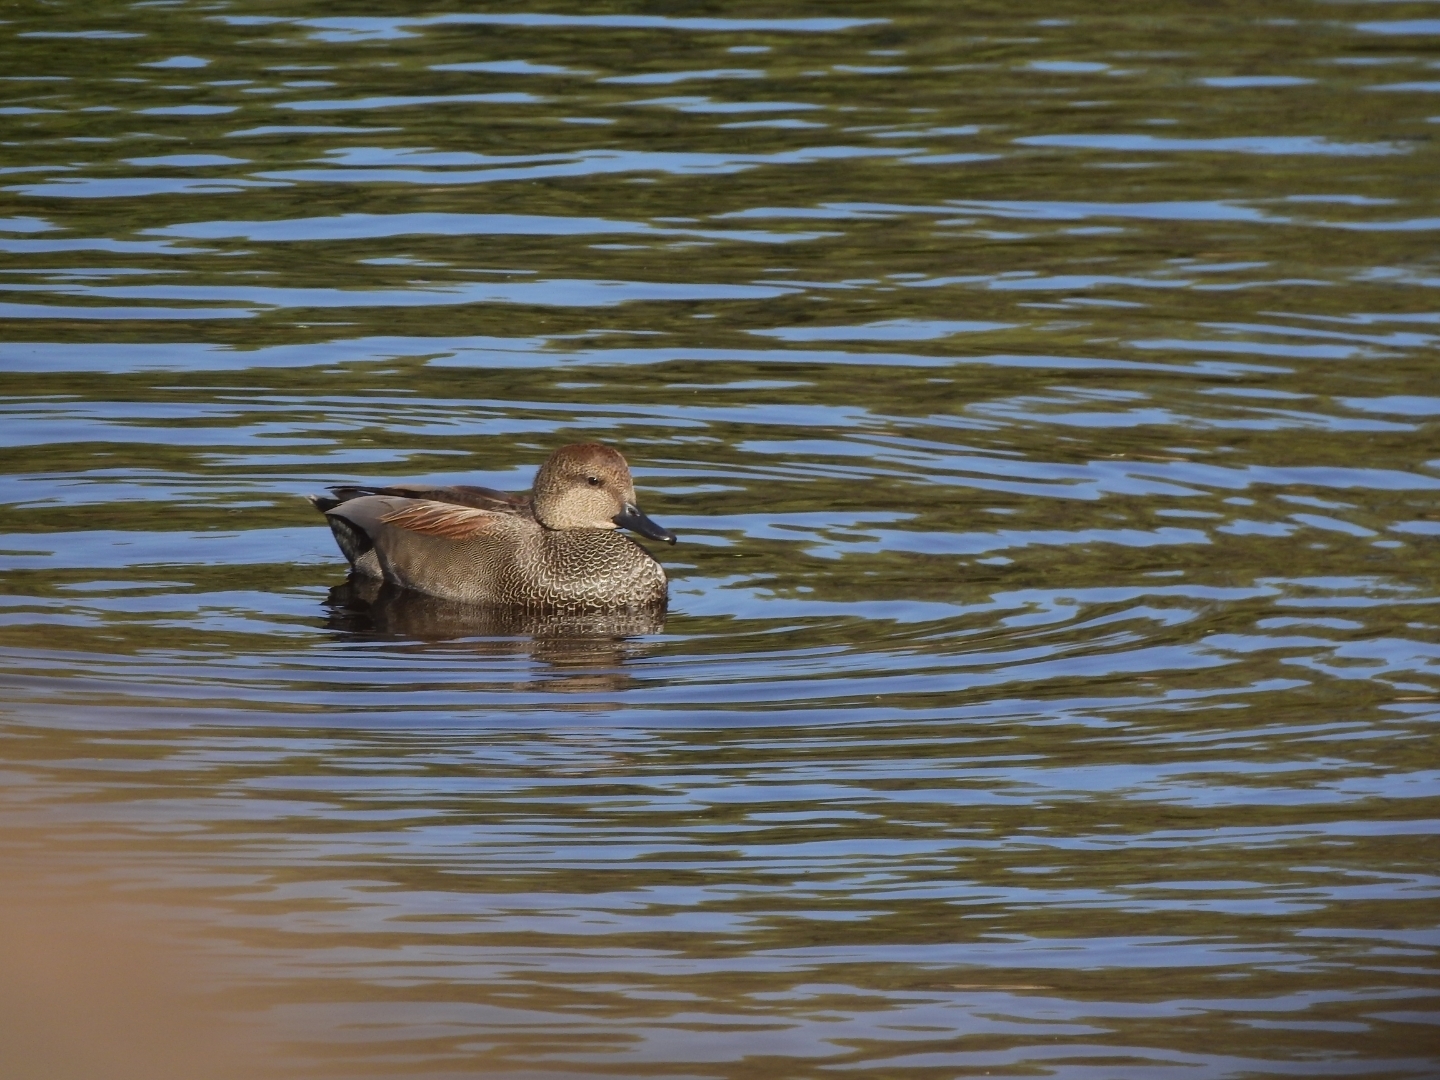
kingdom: Animalia
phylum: Chordata
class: Aves
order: Anseriformes
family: Anatidae
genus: Mareca
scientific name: Mareca strepera
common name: Gadwall
